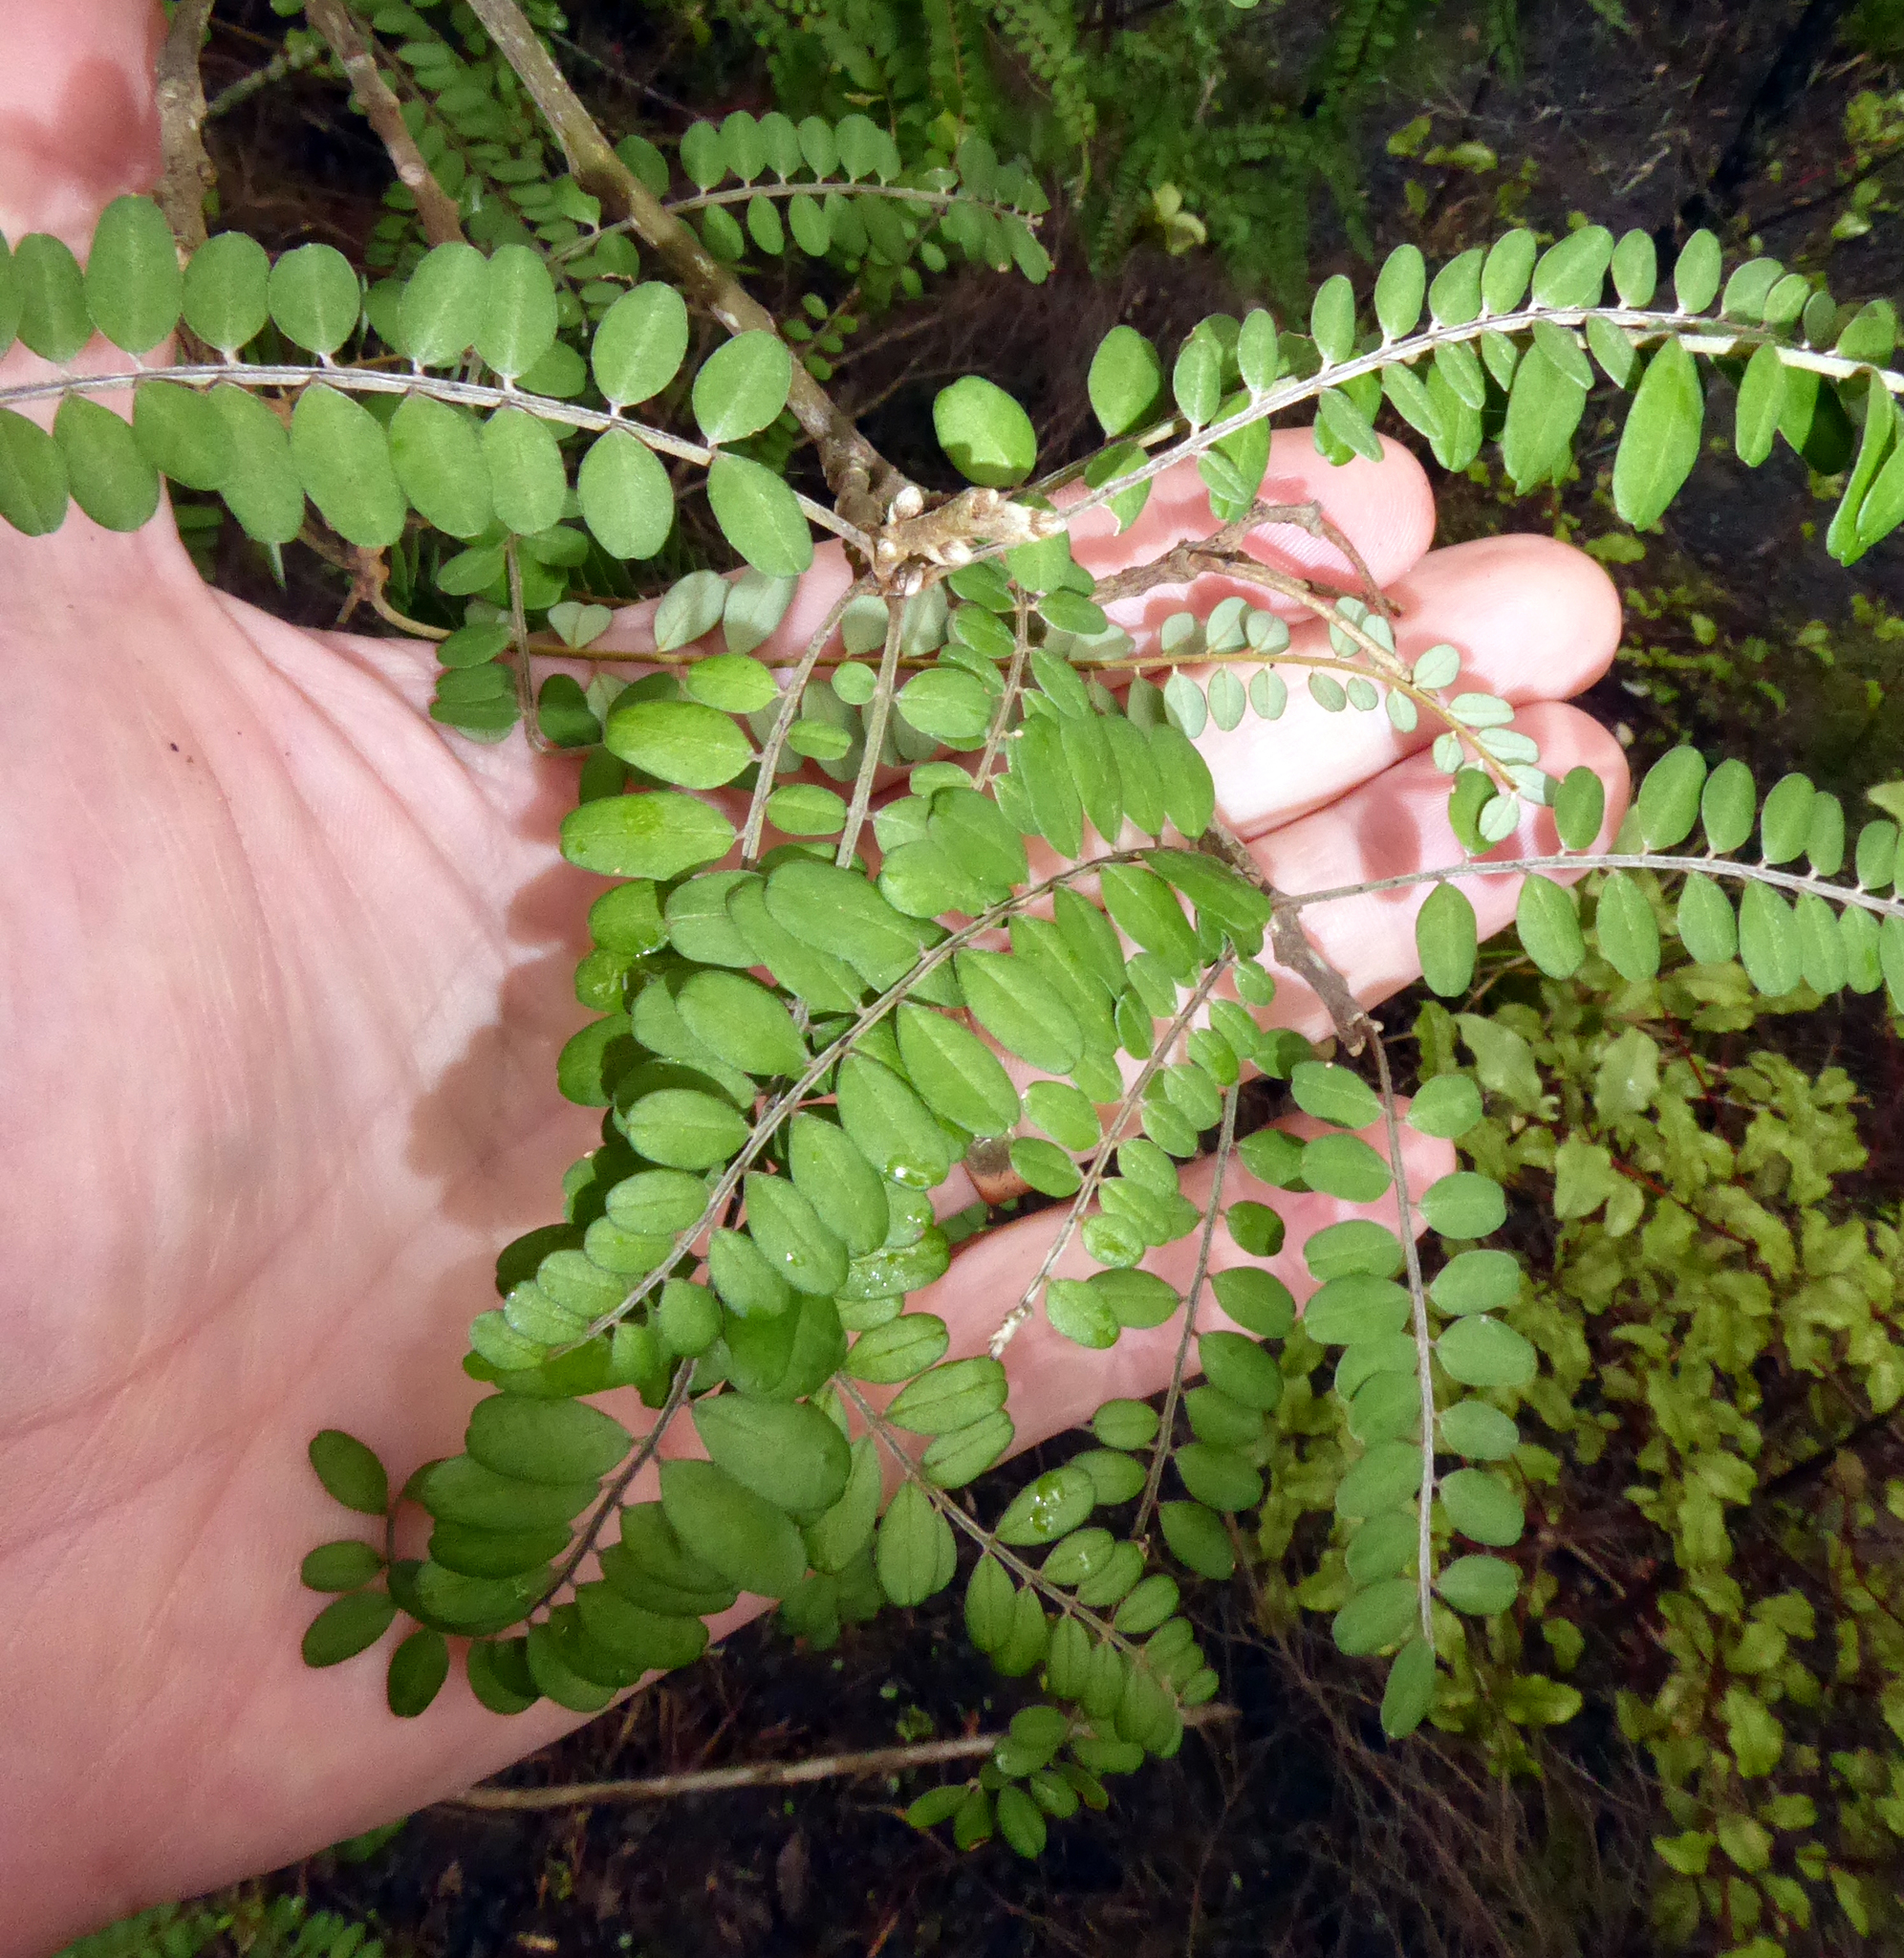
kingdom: Plantae
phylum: Tracheophyta
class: Magnoliopsida
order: Fabales
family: Fabaceae
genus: Sophora
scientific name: Sophora chathamica
